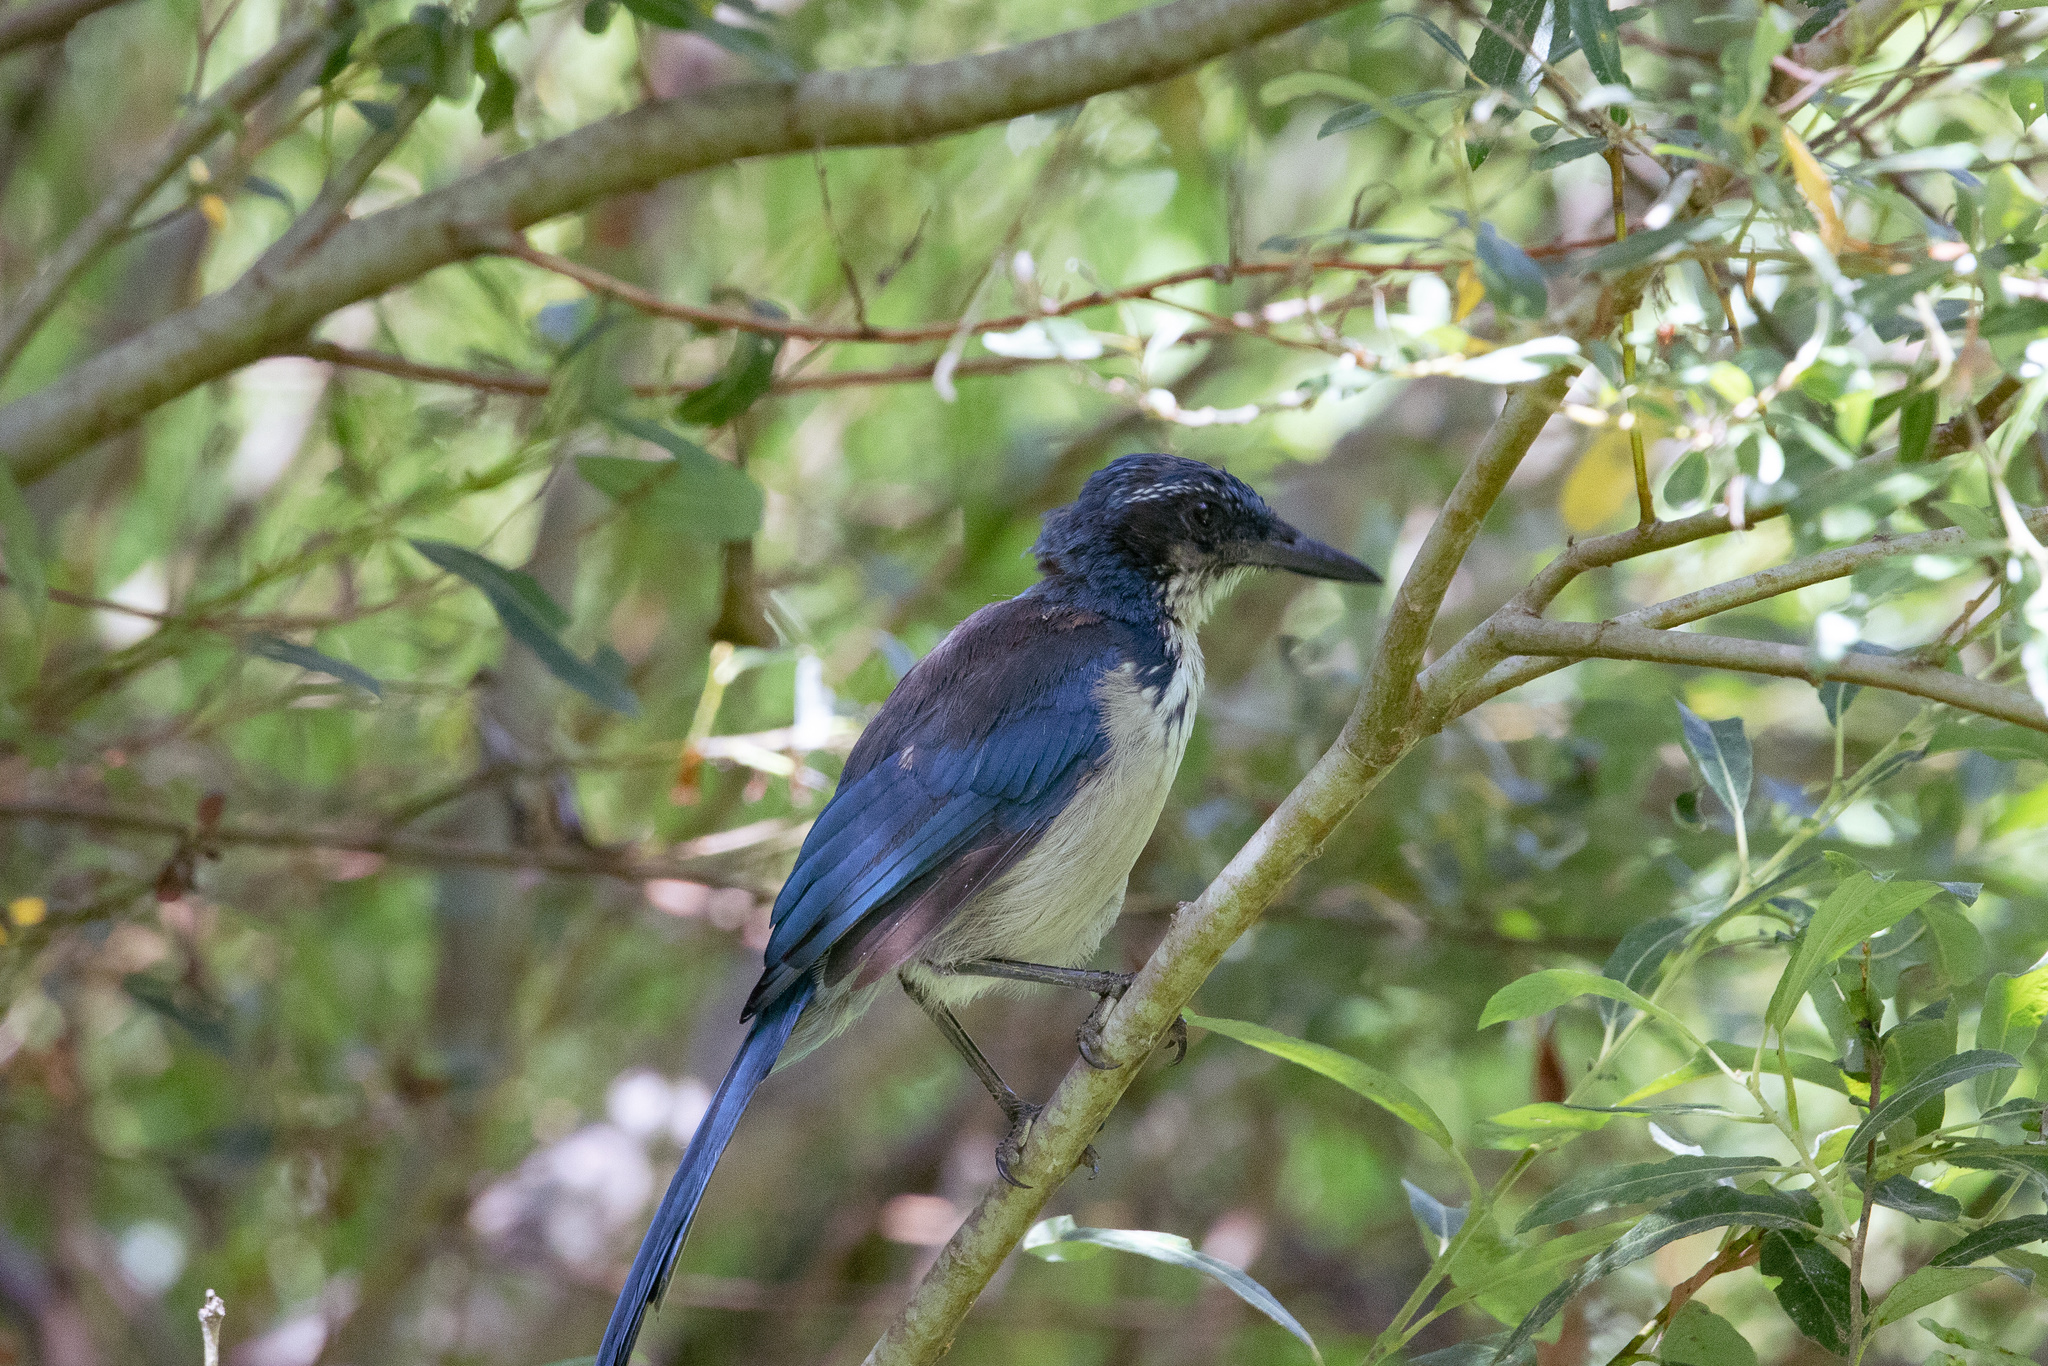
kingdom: Animalia
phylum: Chordata
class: Aves
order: Passeriformes
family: Corvidae
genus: Aphelocoma
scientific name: Aphelocoma insularis
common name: Island scrub-jay
